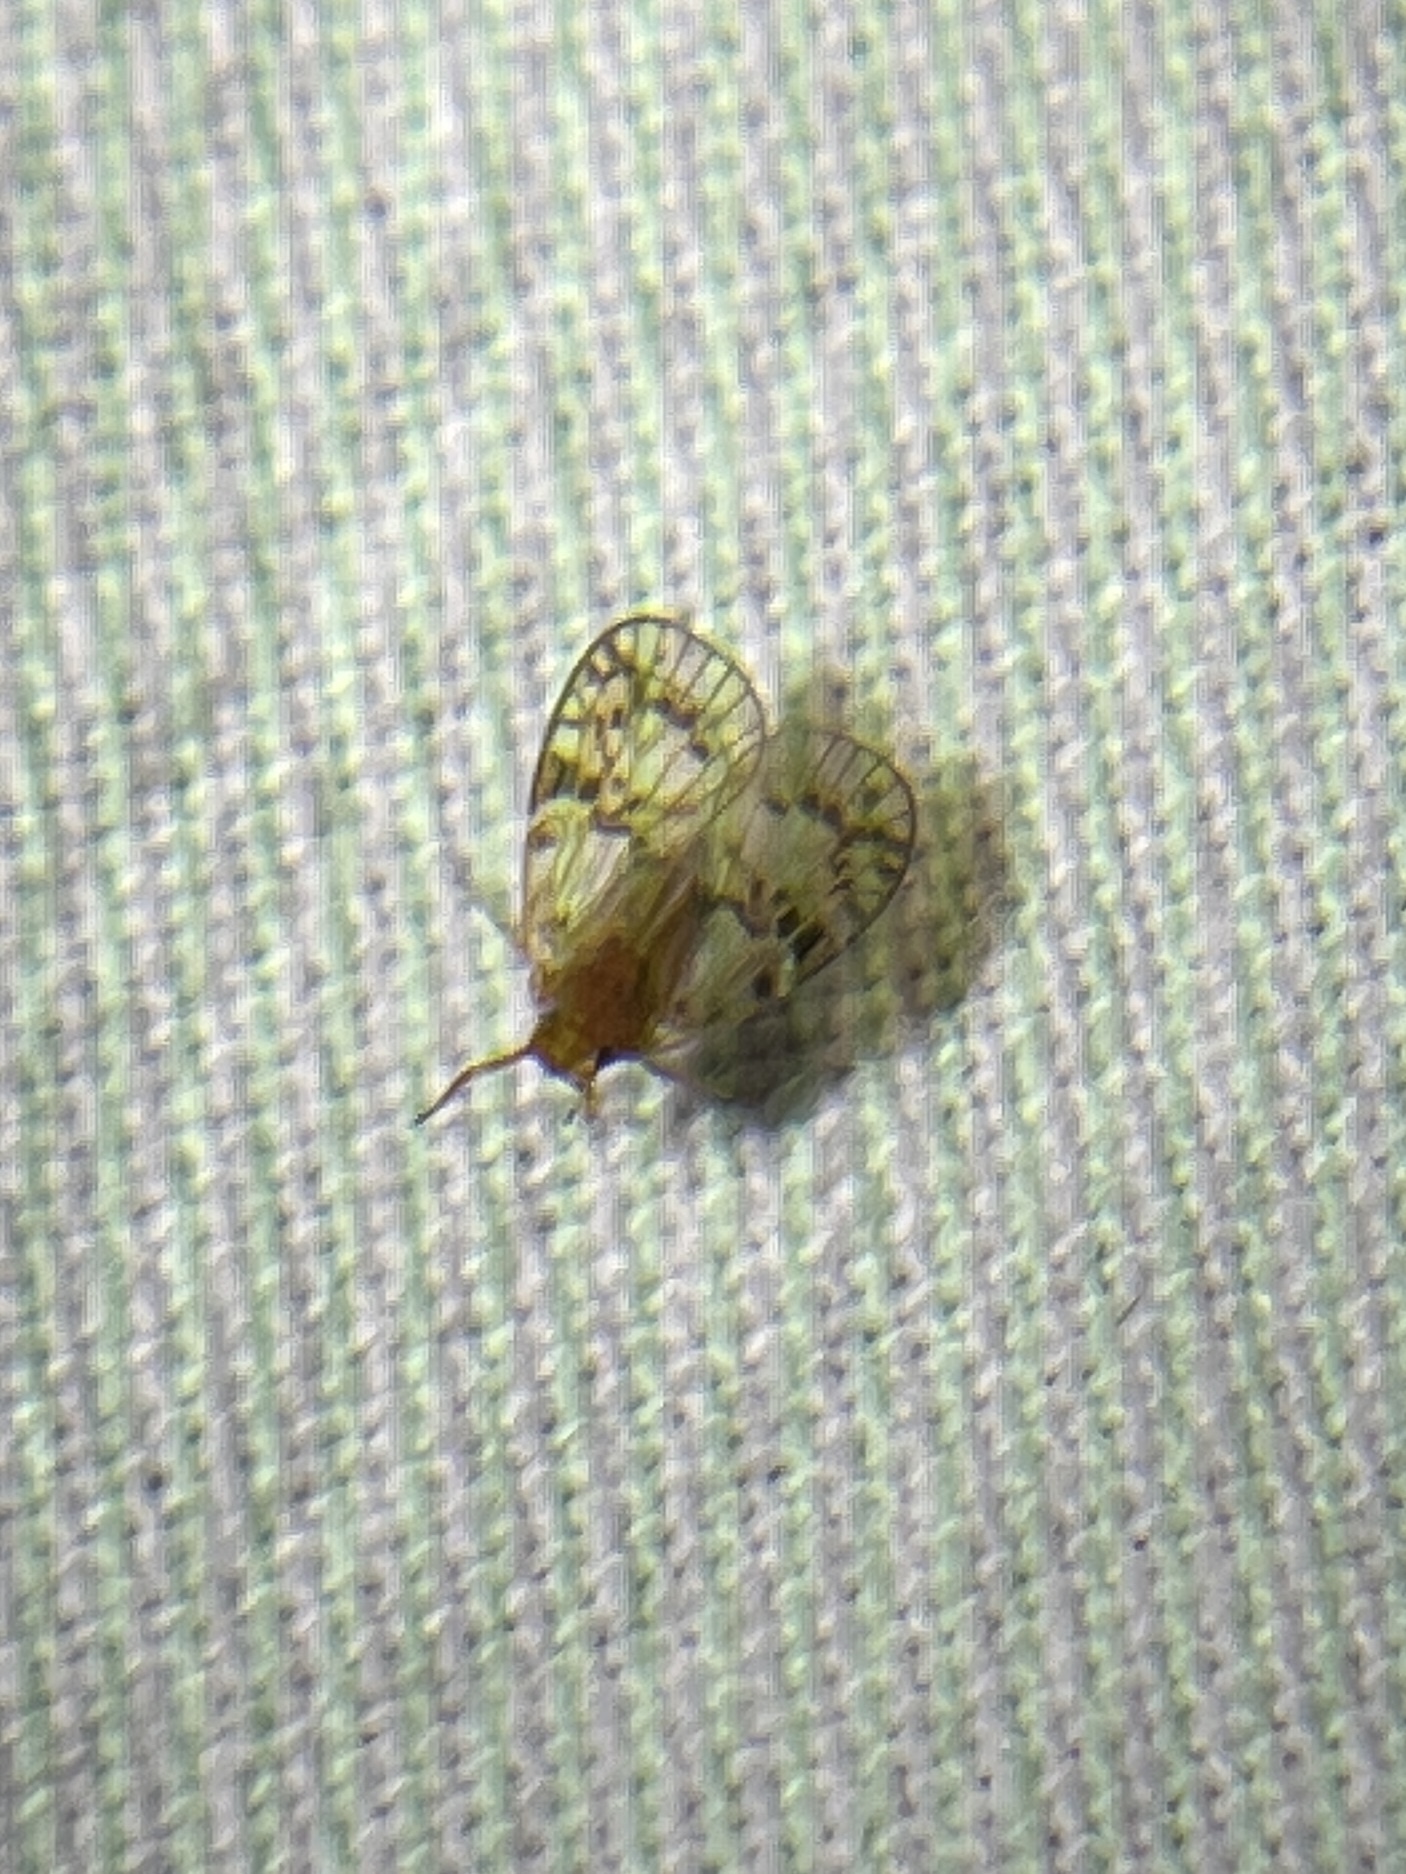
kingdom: Animalia
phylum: Arthropoda
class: Insecta
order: Hemiptera
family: Cixiidae
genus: Bothriocera
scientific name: Bothriocera drakei
